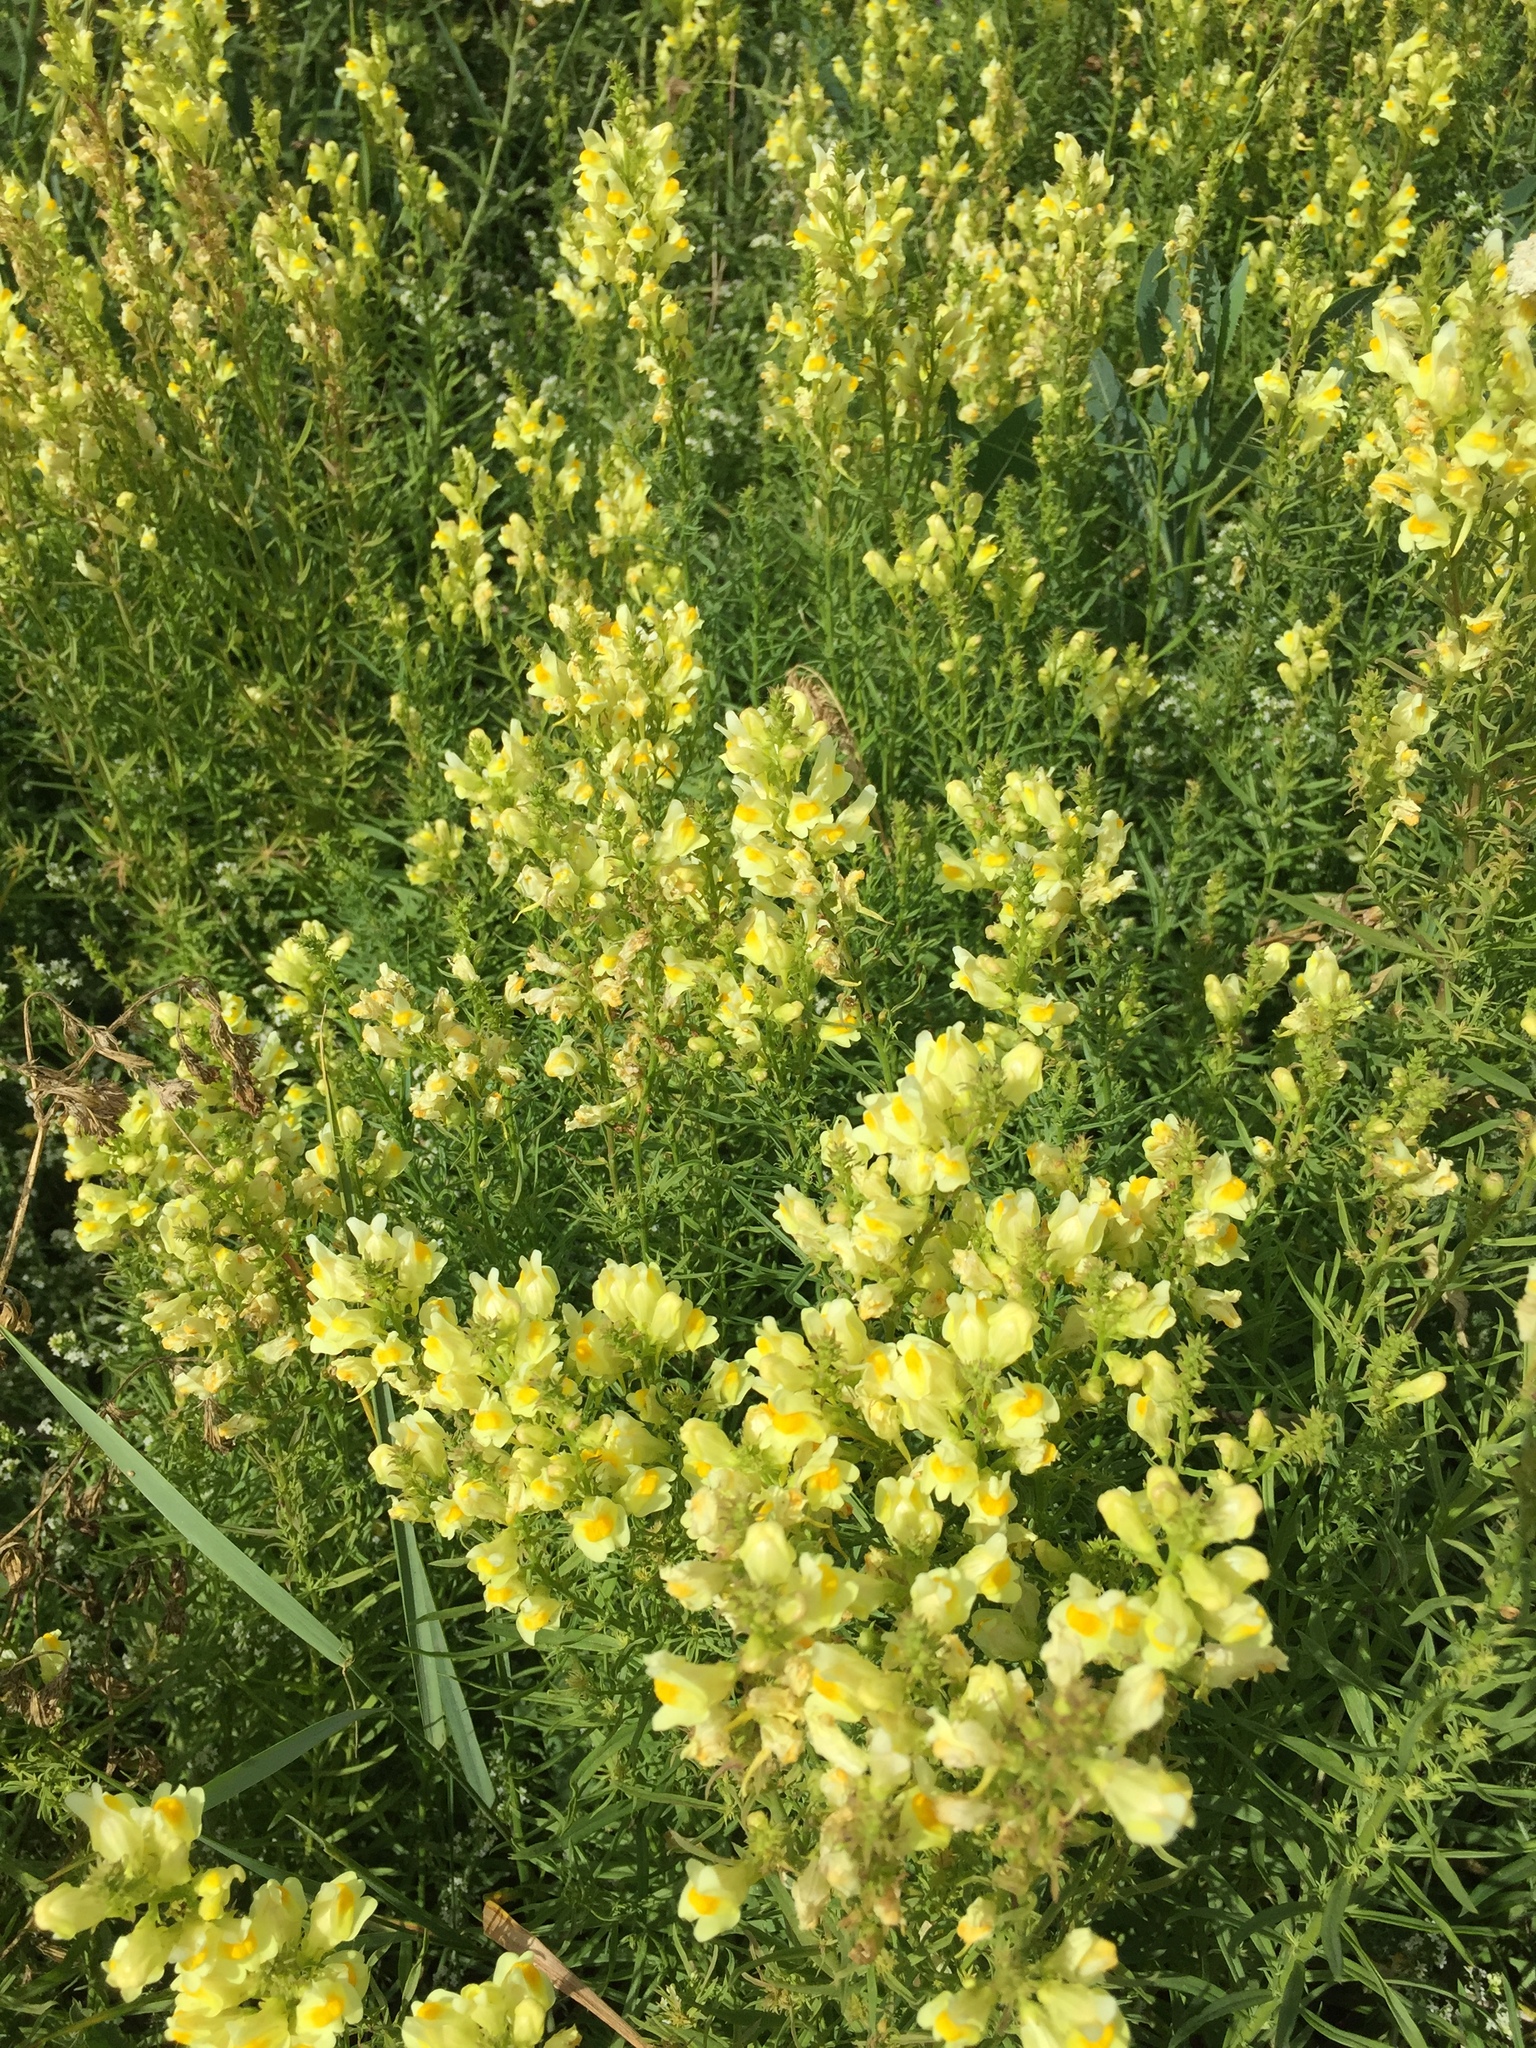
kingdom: Plantae
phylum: Tracheophyta
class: Magnoliopsida
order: Lamiales
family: Plantaginaceae
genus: Linaria
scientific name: Linaria vulgaris
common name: Butter and eggs
